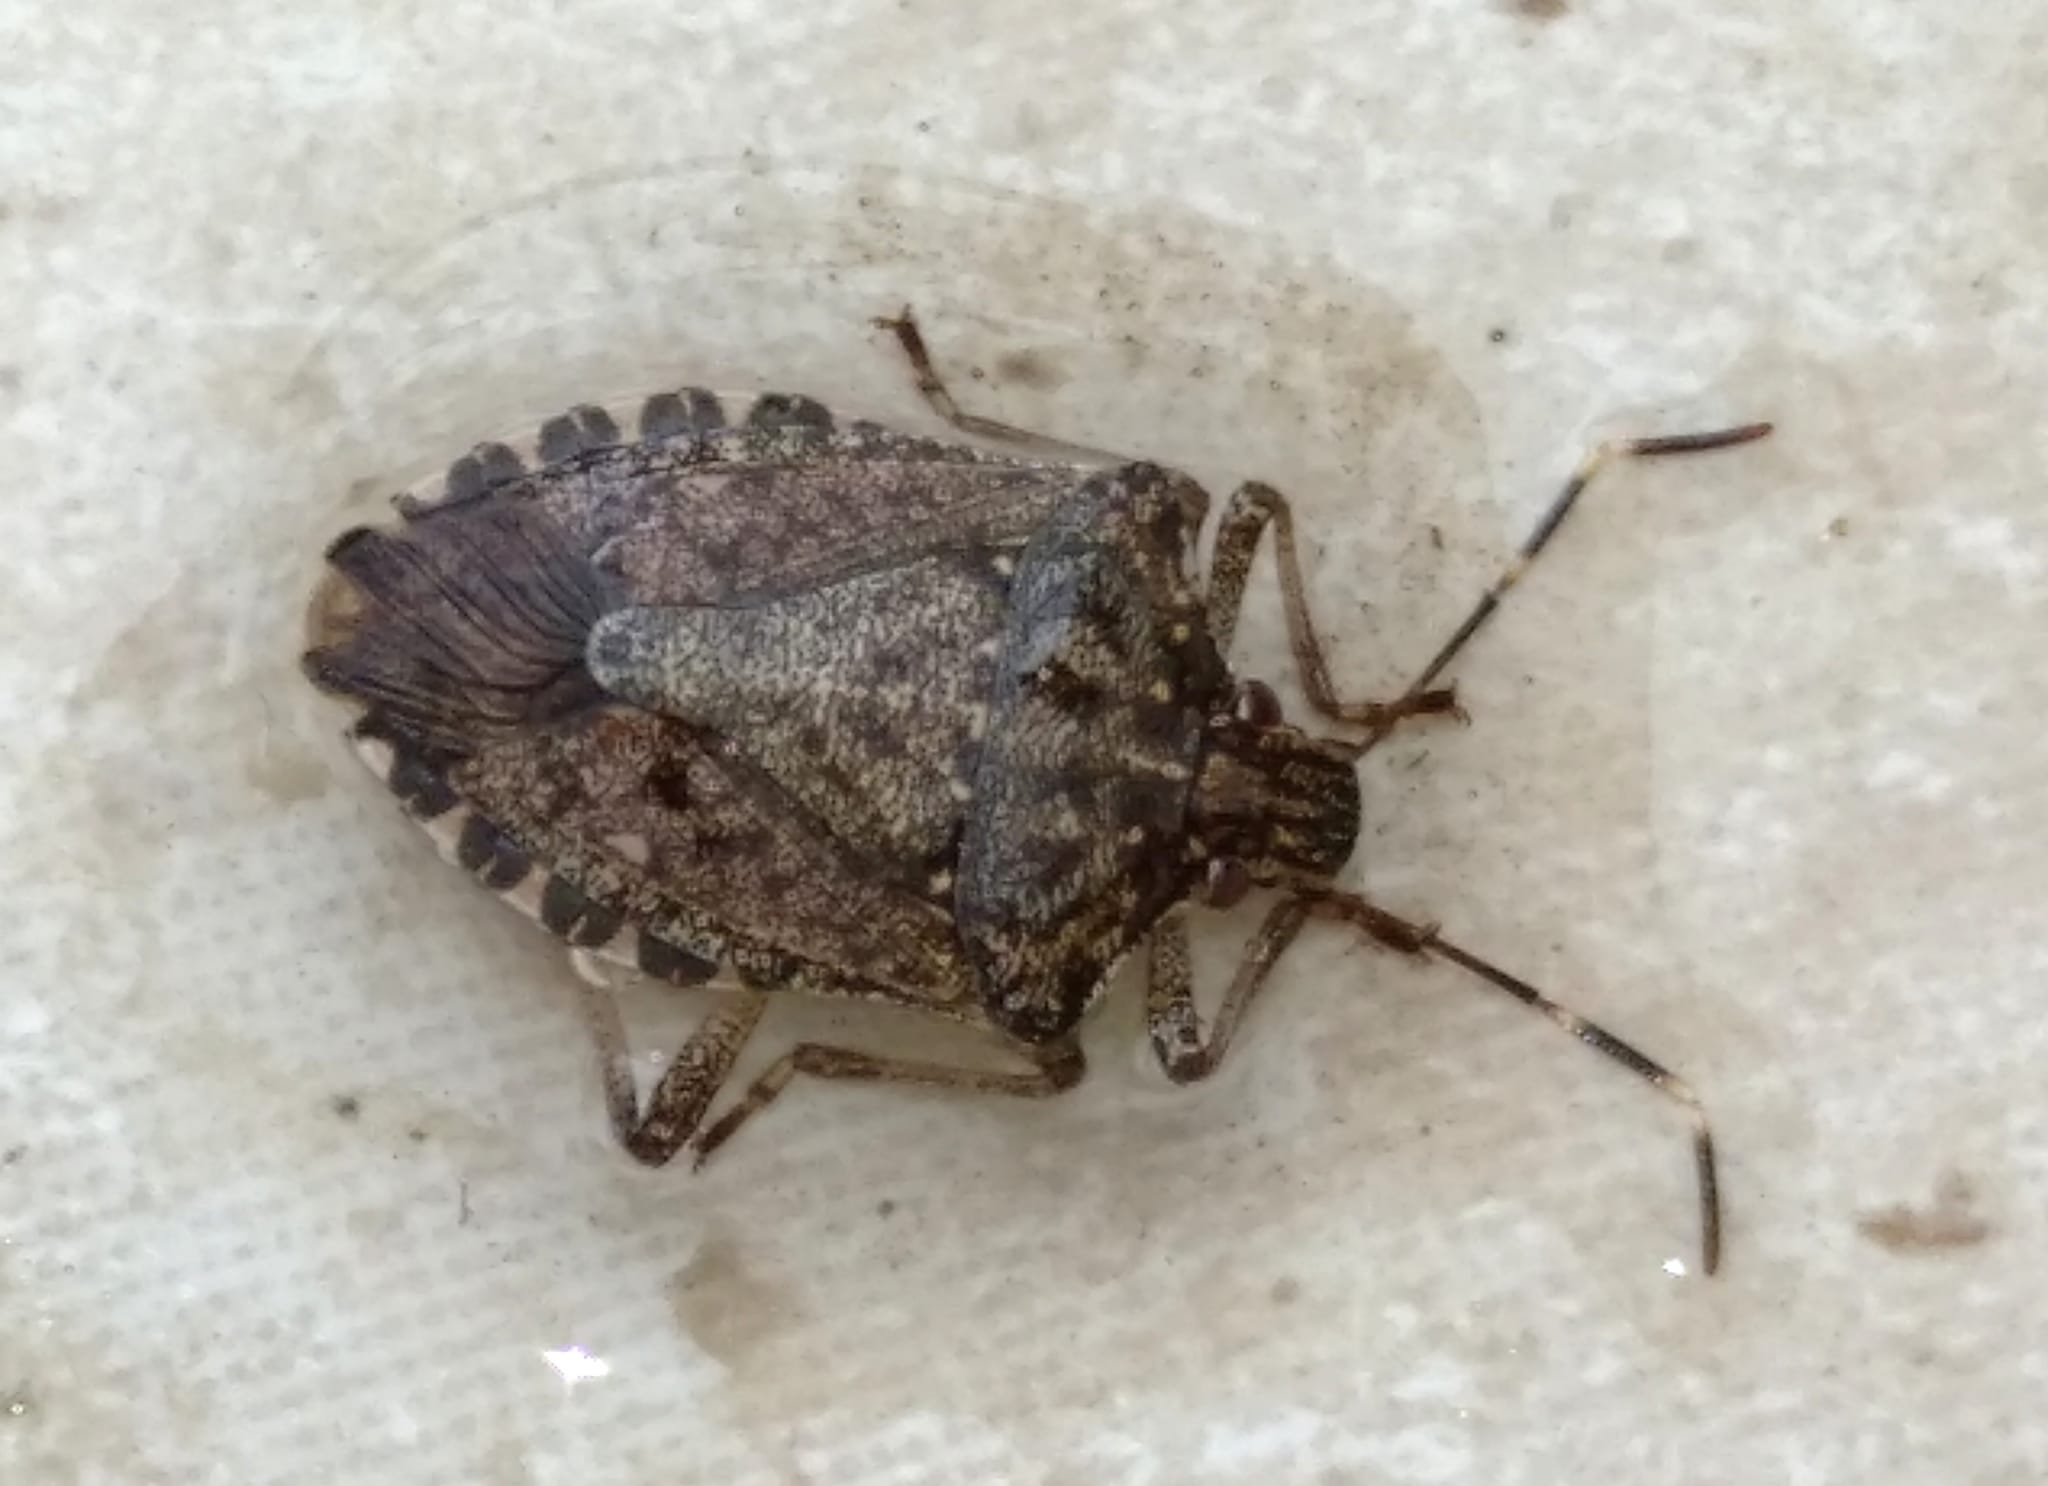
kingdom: Animalia
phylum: Arthropoda
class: Insecta
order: Hemiptera
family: Pentatomidae
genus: Halyomorpha
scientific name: Halyomorpha halys
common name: Brown marmorated stink bug
